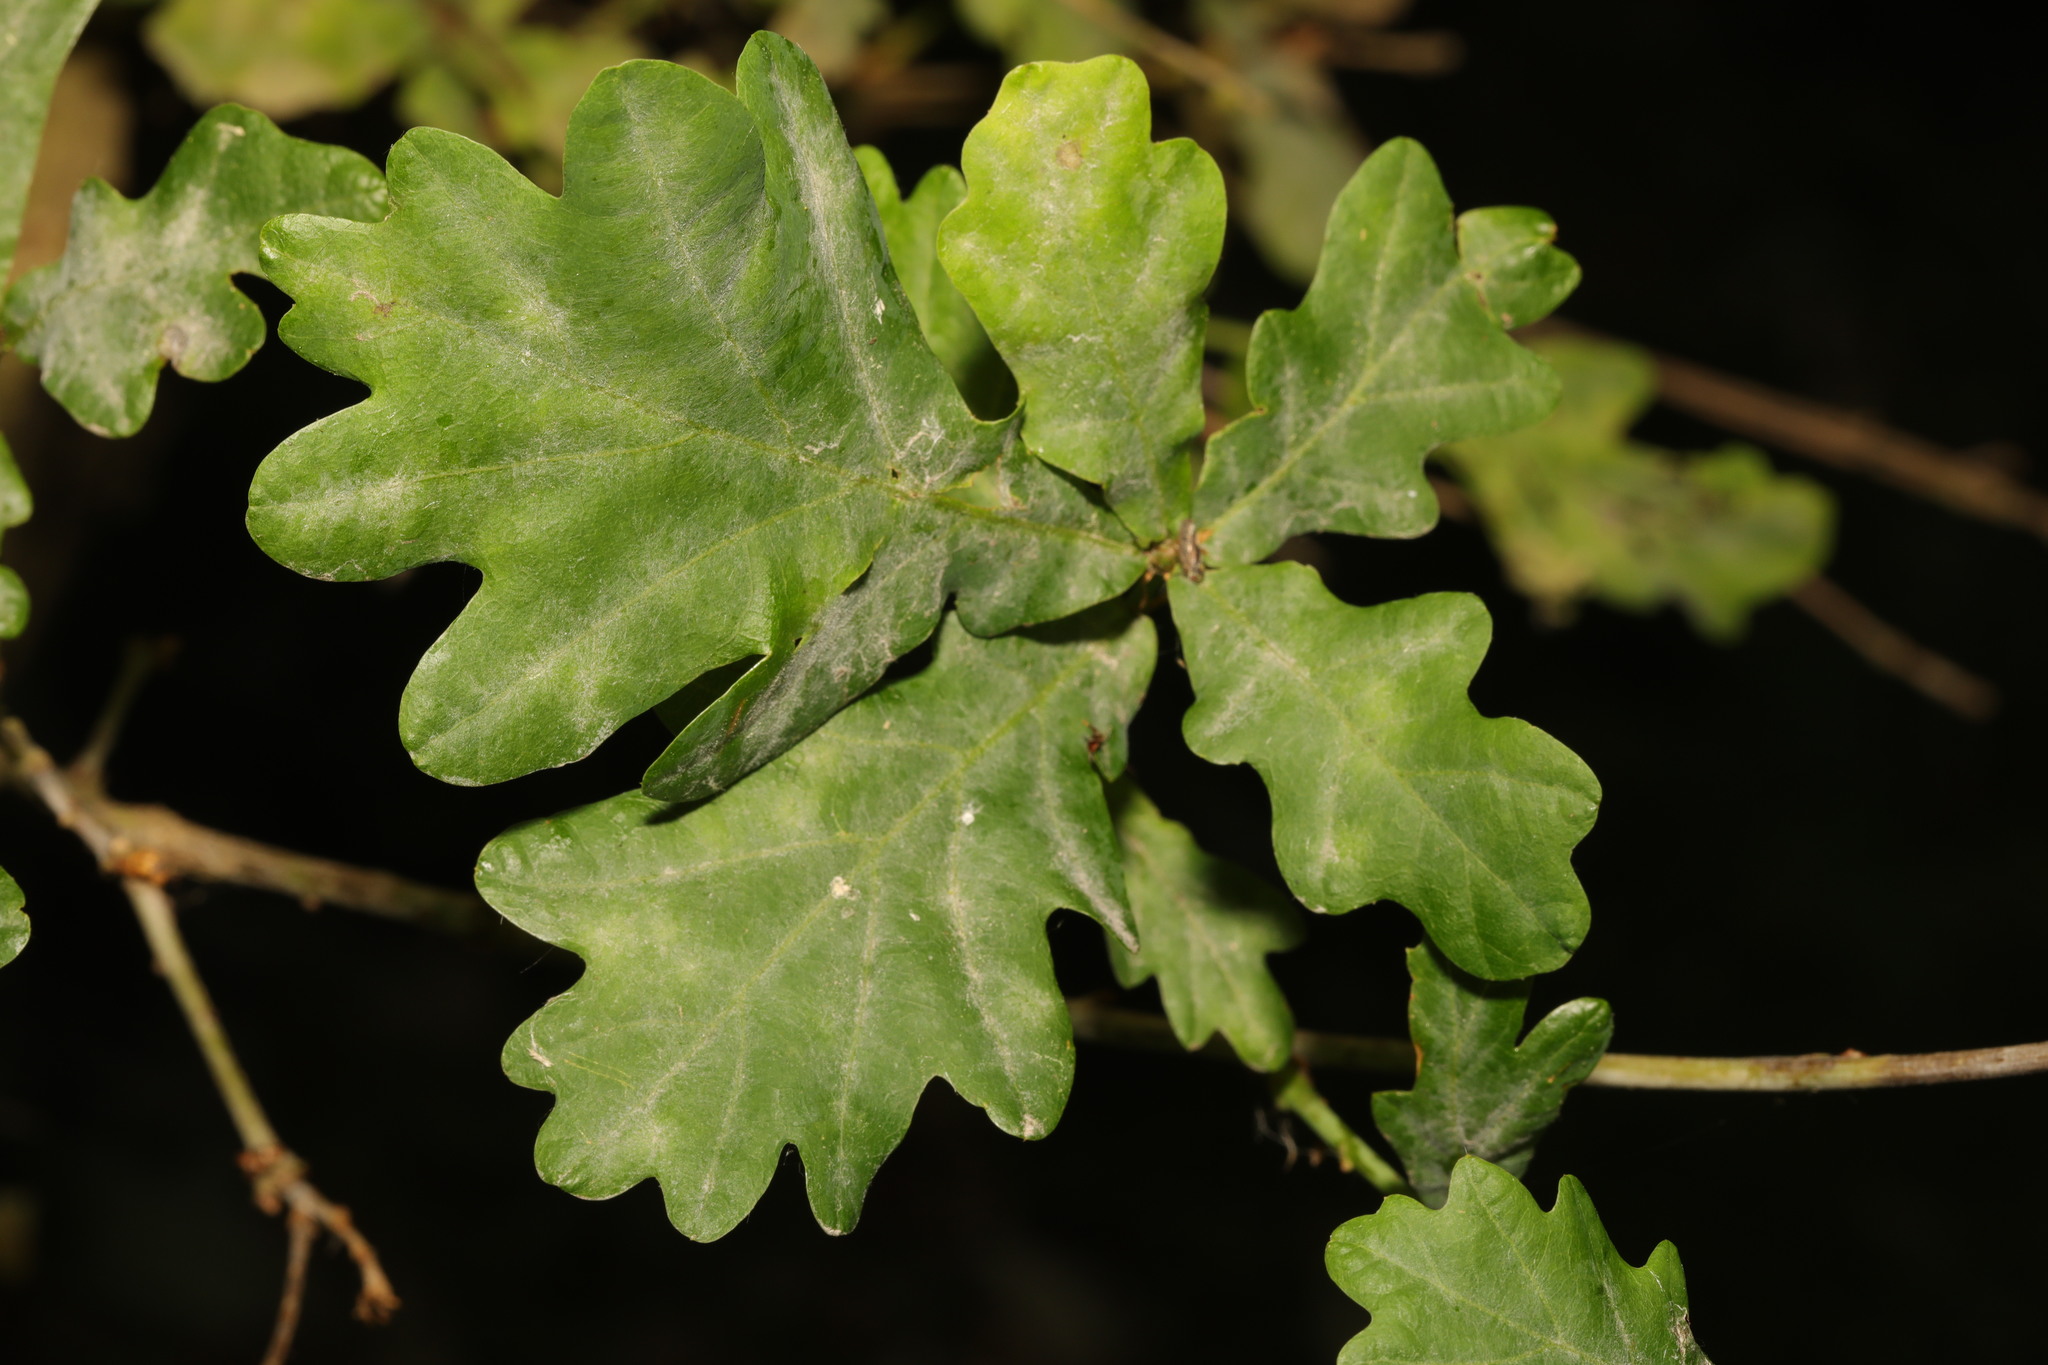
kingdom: Plantae
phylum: Tracheophyta
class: Magnoliopsida
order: Fagales
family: Fagaceae
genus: Quercus
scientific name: Quercus robur
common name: Pedunculate oak
